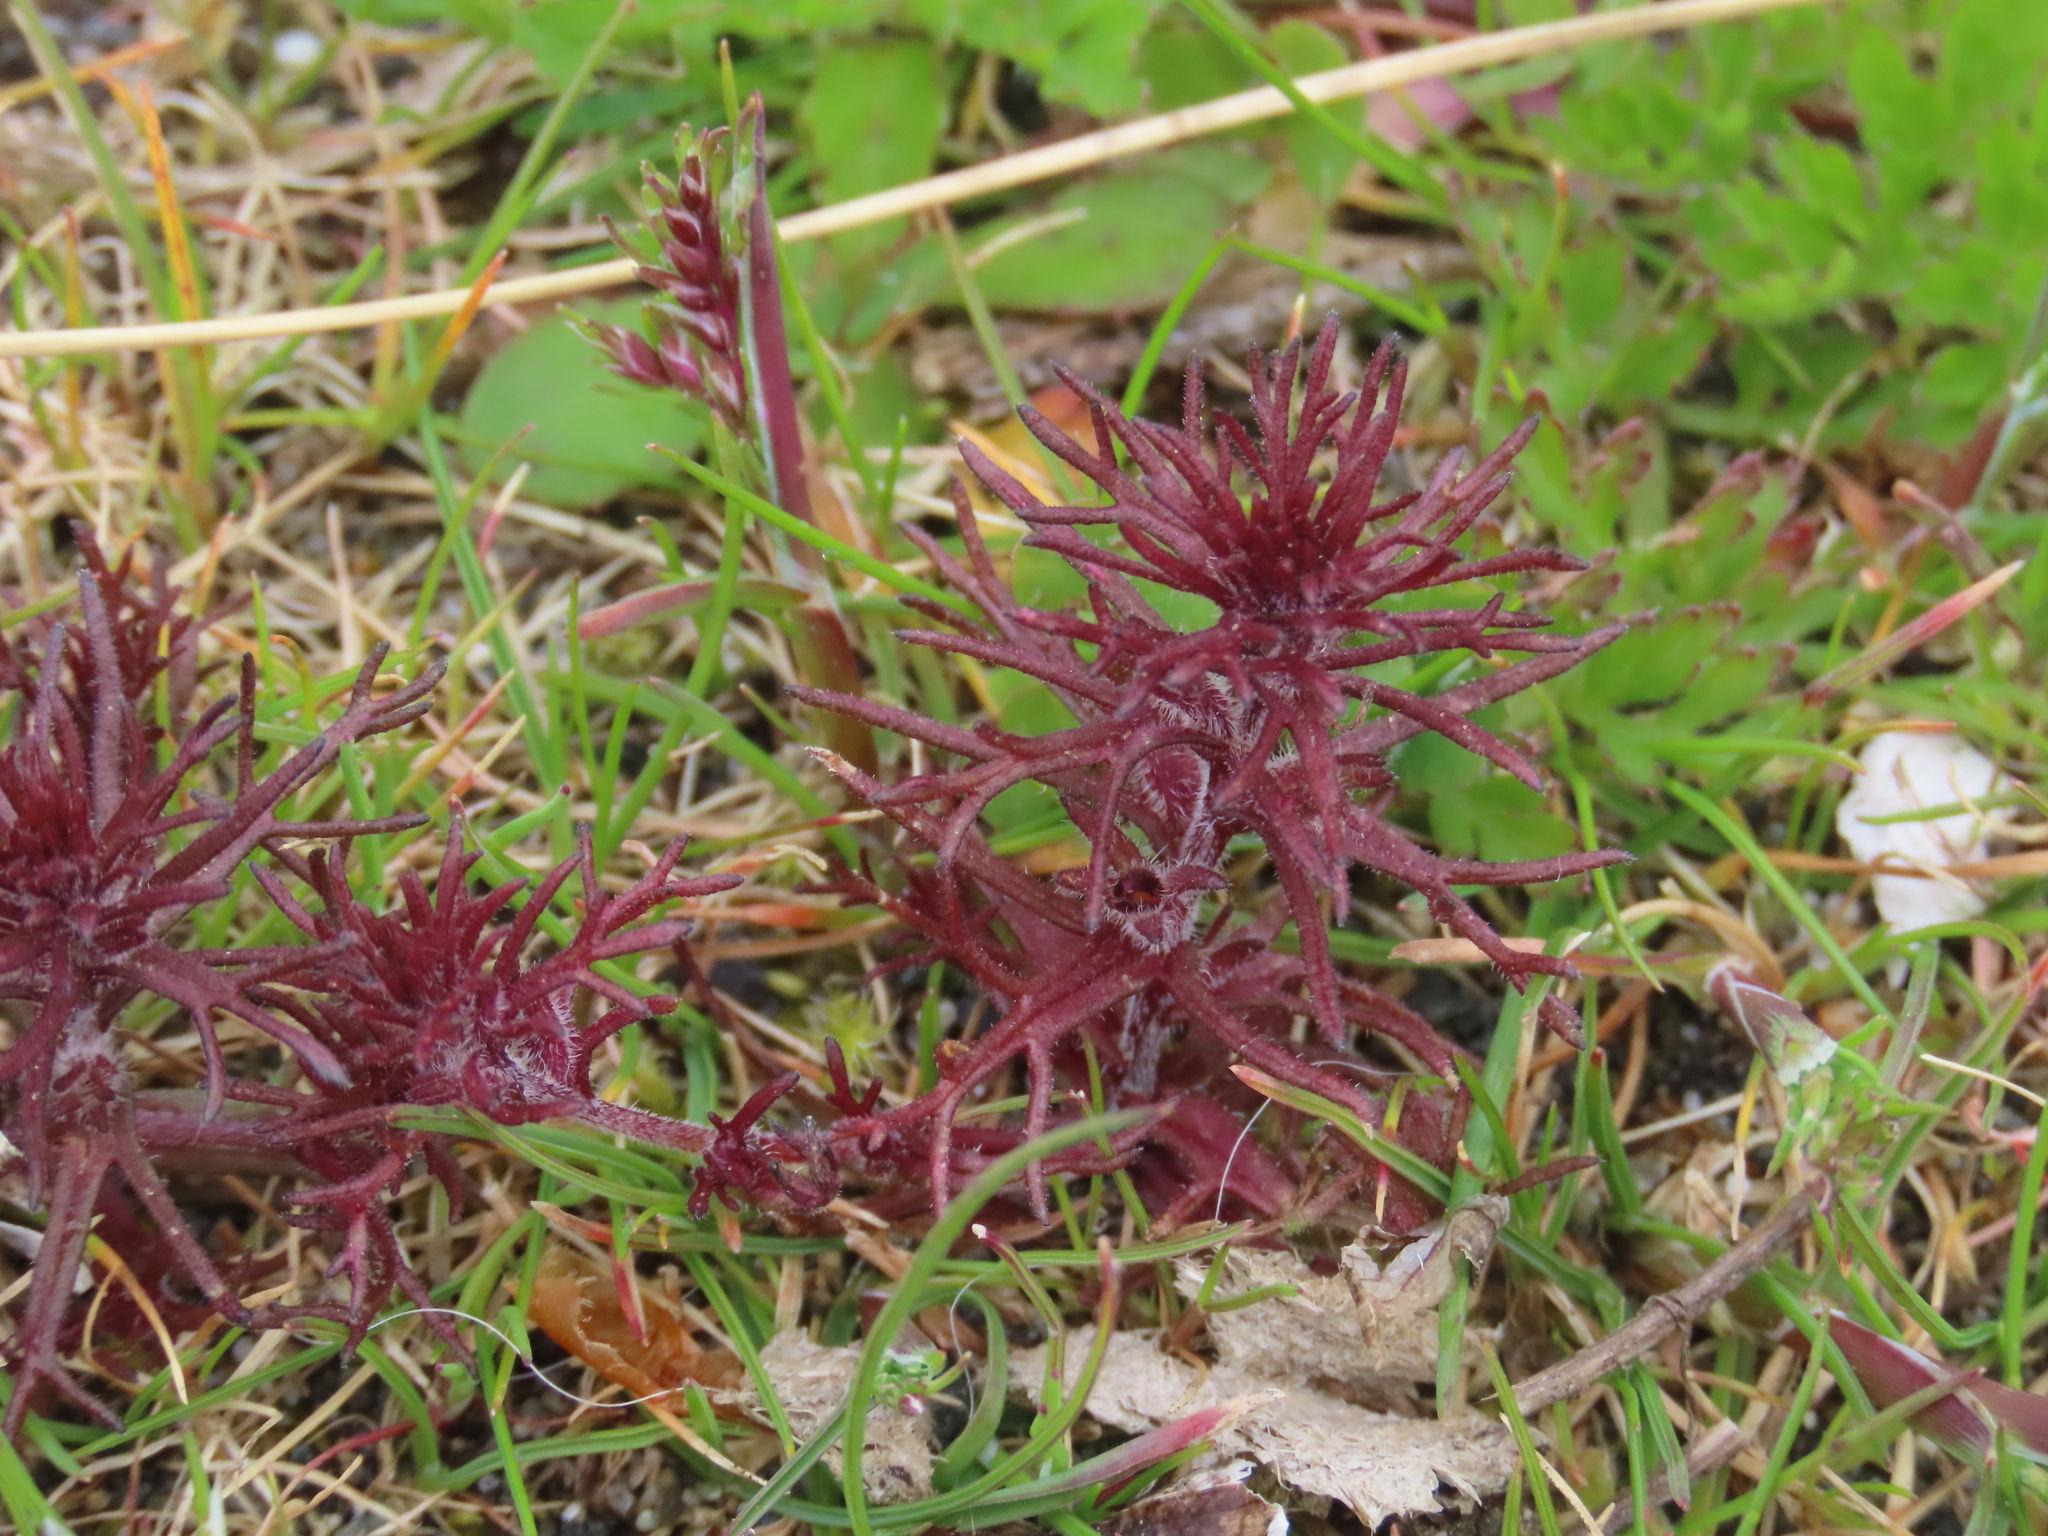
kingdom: Plantae
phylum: Tracheophyta
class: Magnoliopsida
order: Lamiales
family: Orobanchaceae
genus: Triphysaria
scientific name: Triphysaria pusilla
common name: Dwarf false owl-clover
